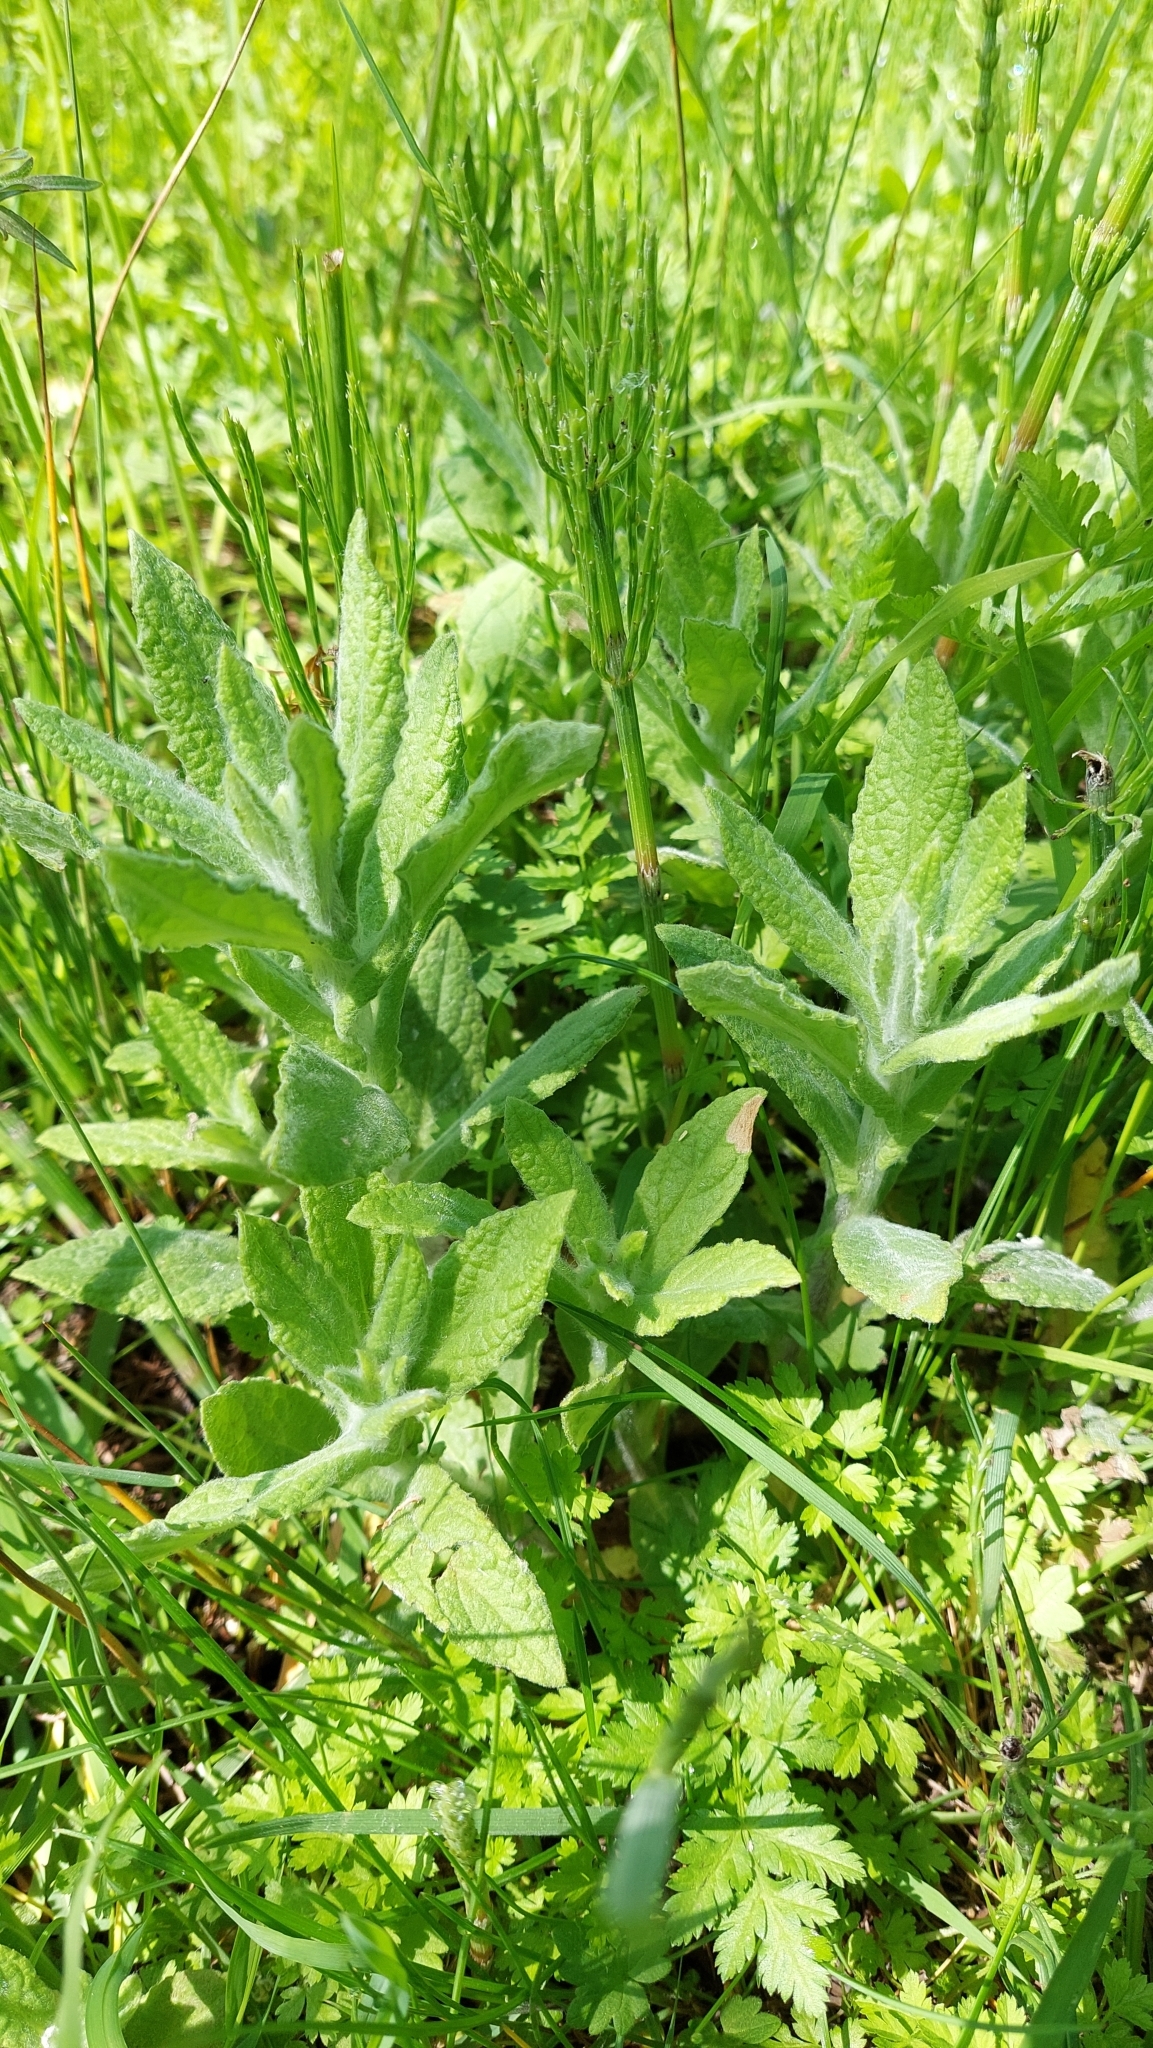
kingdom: Plantae
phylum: Tracheophyta
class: Magnoliopsida
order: Asterales
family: Asteraceae
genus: Pulicaria
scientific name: Pulicaria dysenterica
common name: Common fleabane
